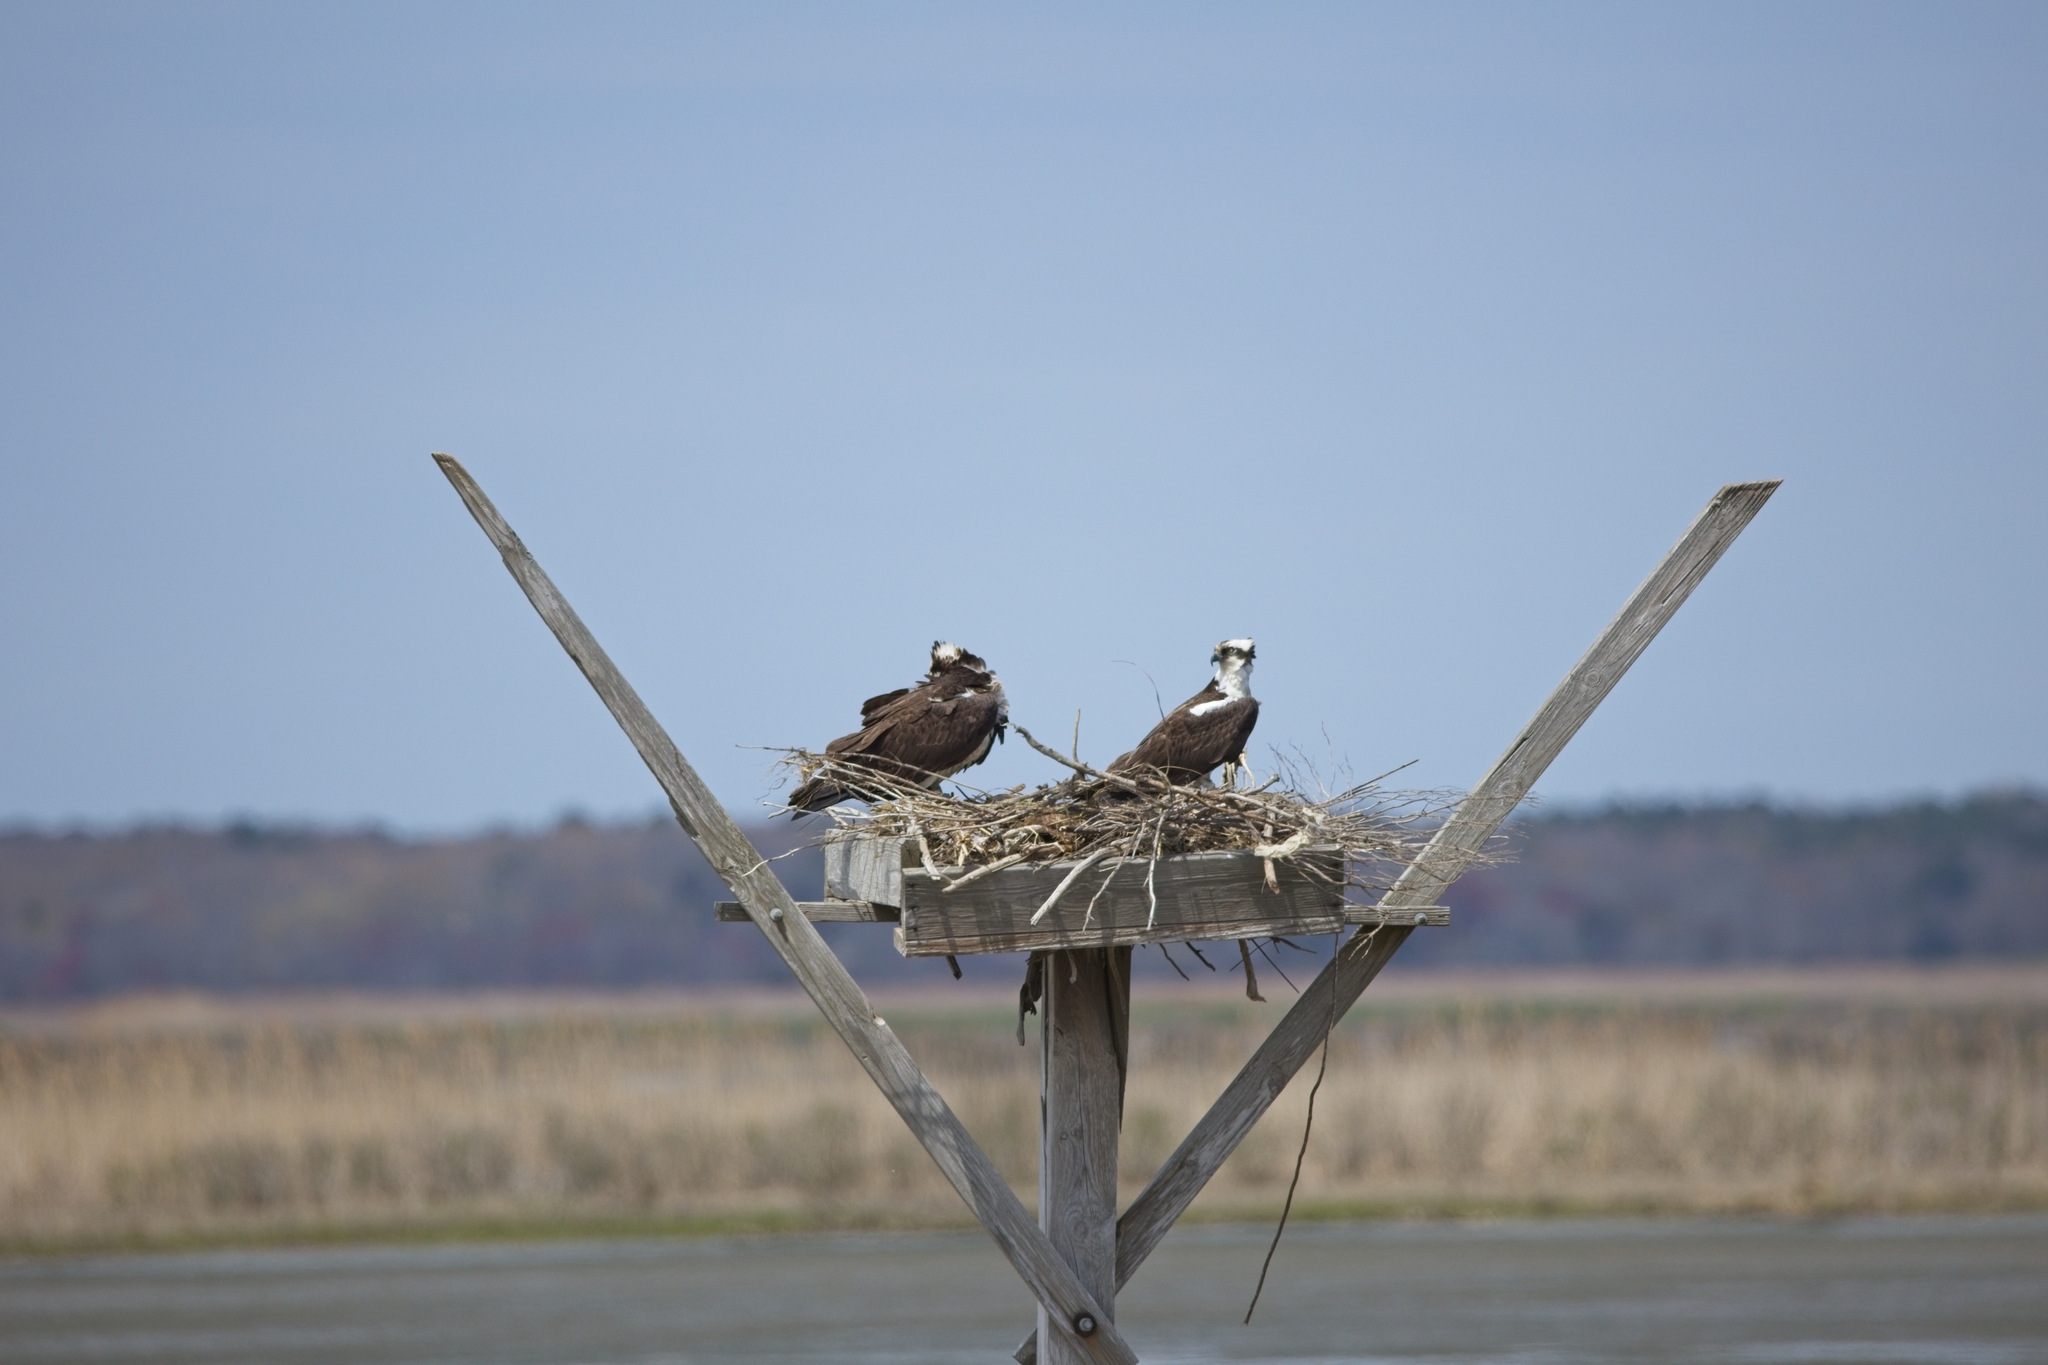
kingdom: Animalia
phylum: Chordata
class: Aves
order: Accipitriformes
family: Pandionidae
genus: Pandion
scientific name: Pandion haliaetus
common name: Osprey
